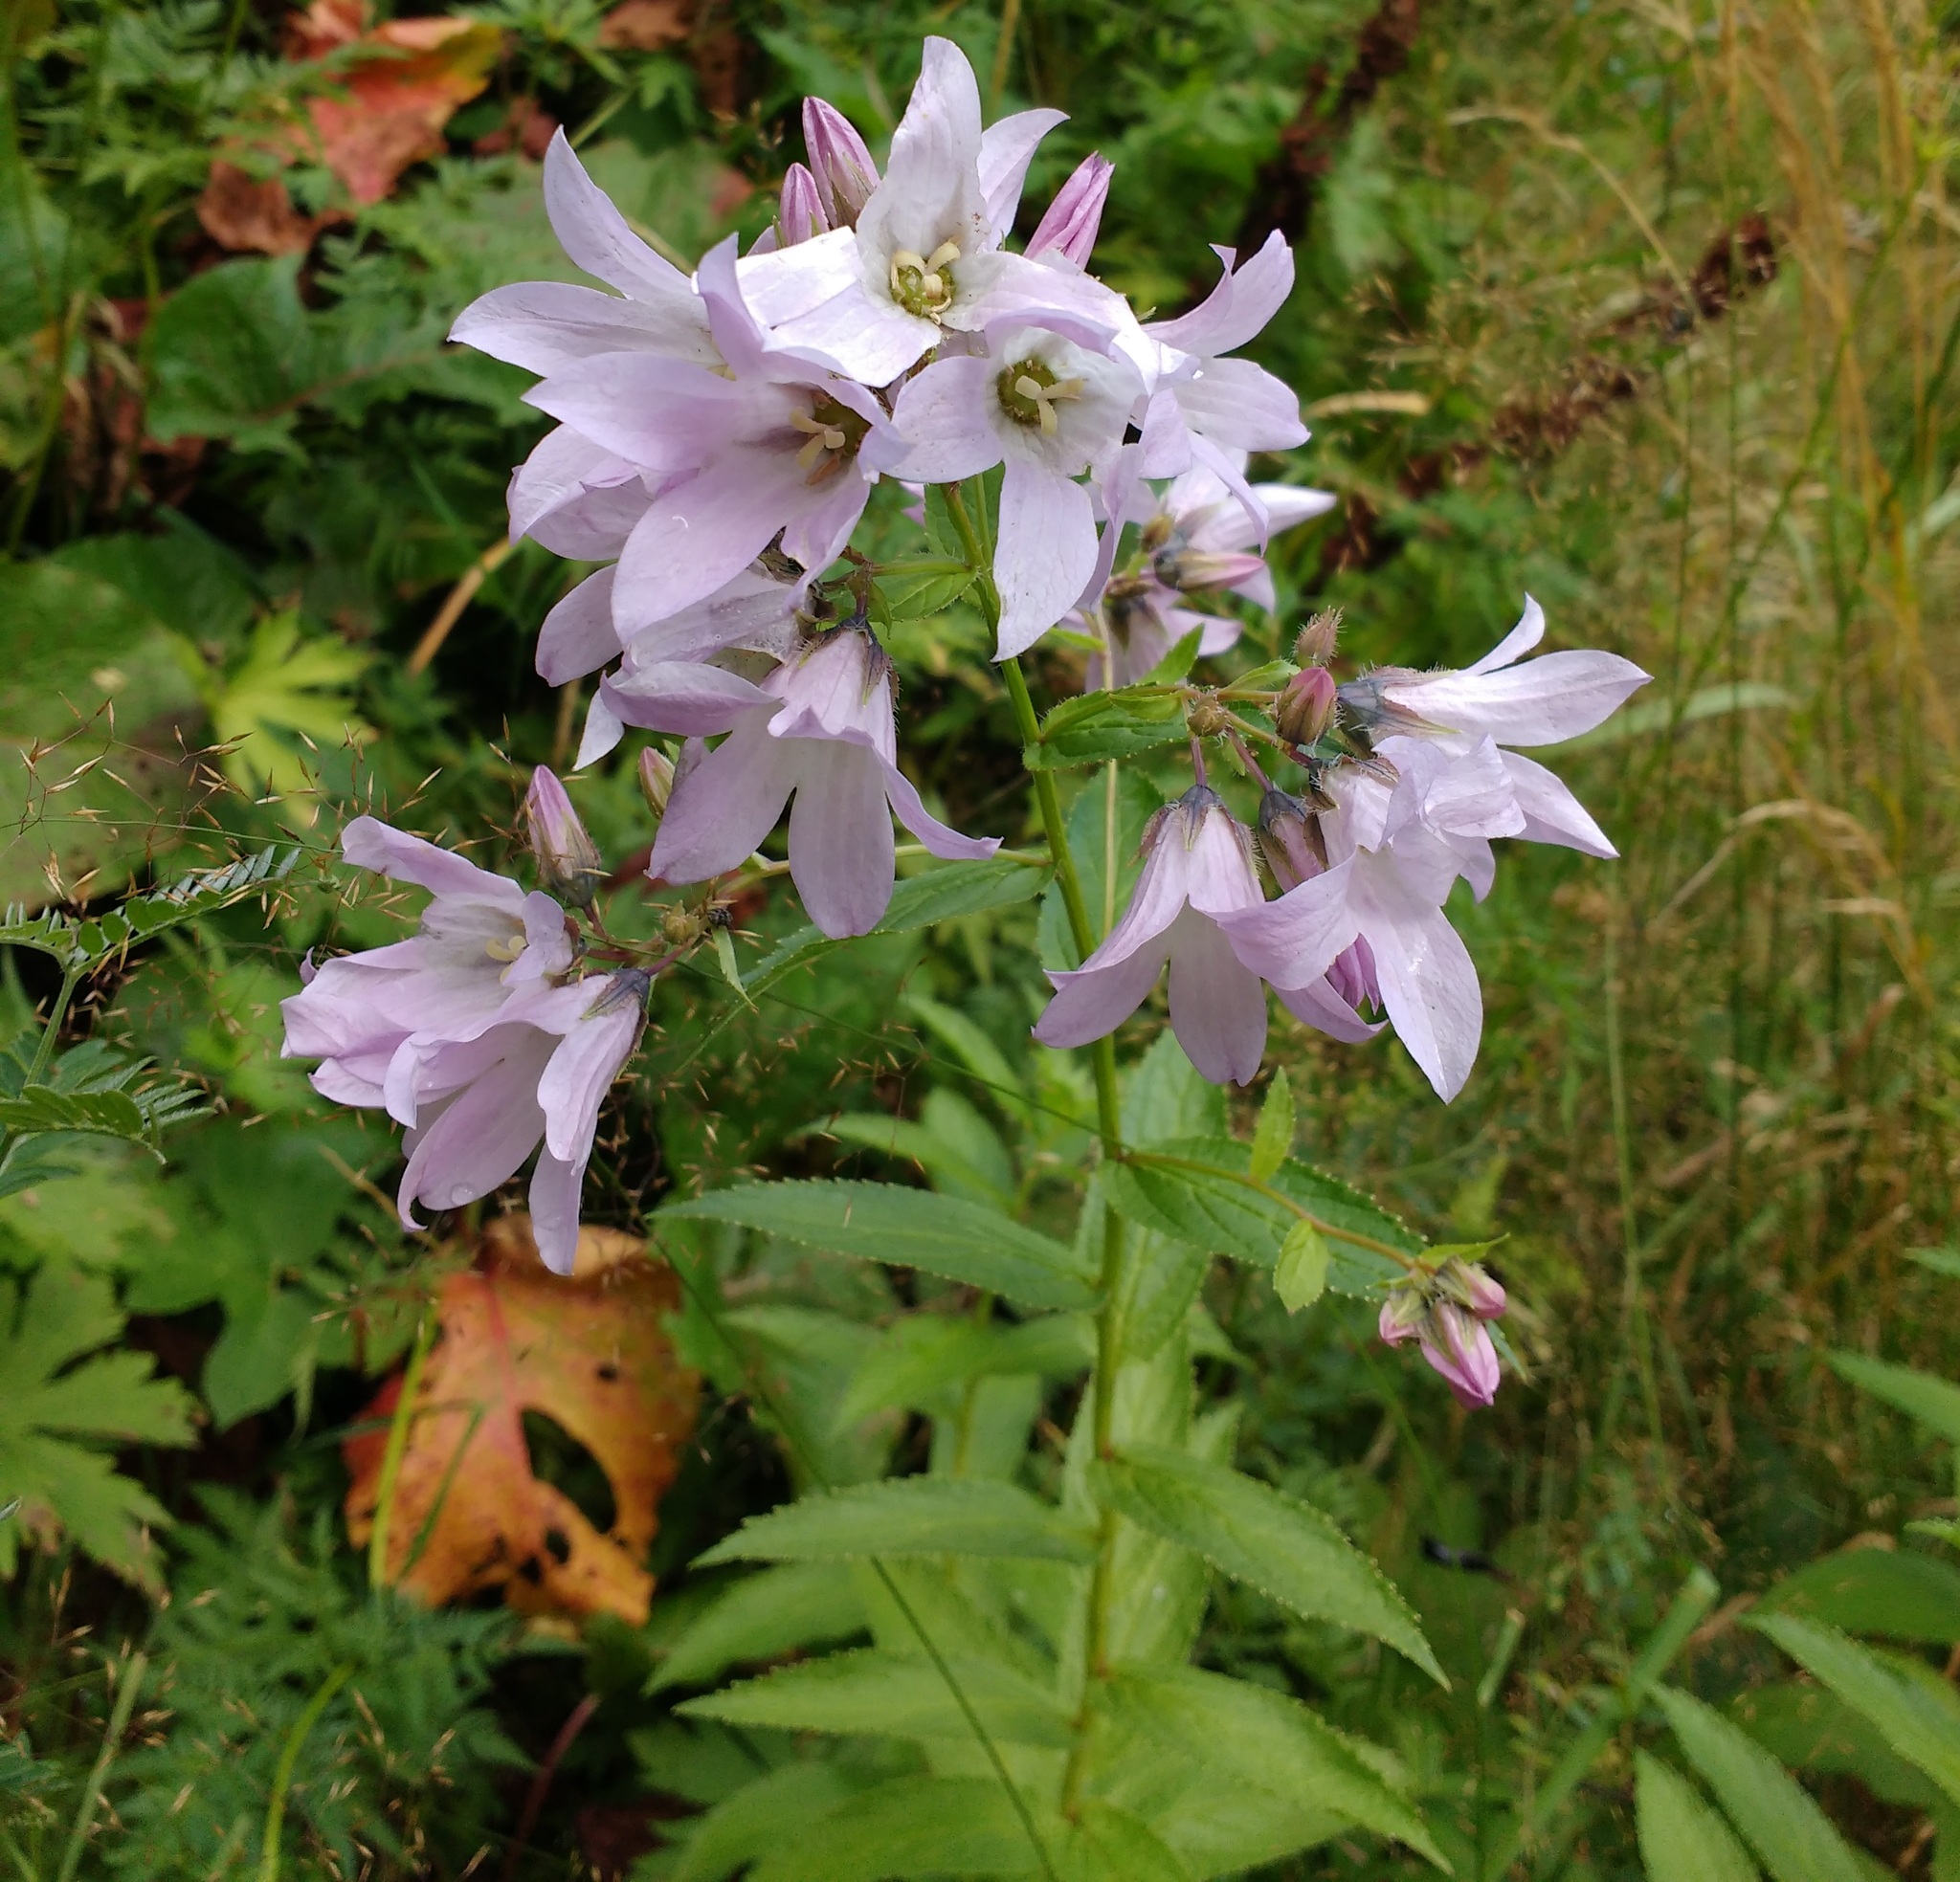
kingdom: Plantae
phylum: Tracheophyta
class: Magnoliopsida
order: Asterales
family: Campanulaceae
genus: Campanula
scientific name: Campanula lactiflora
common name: Milky bellflower
